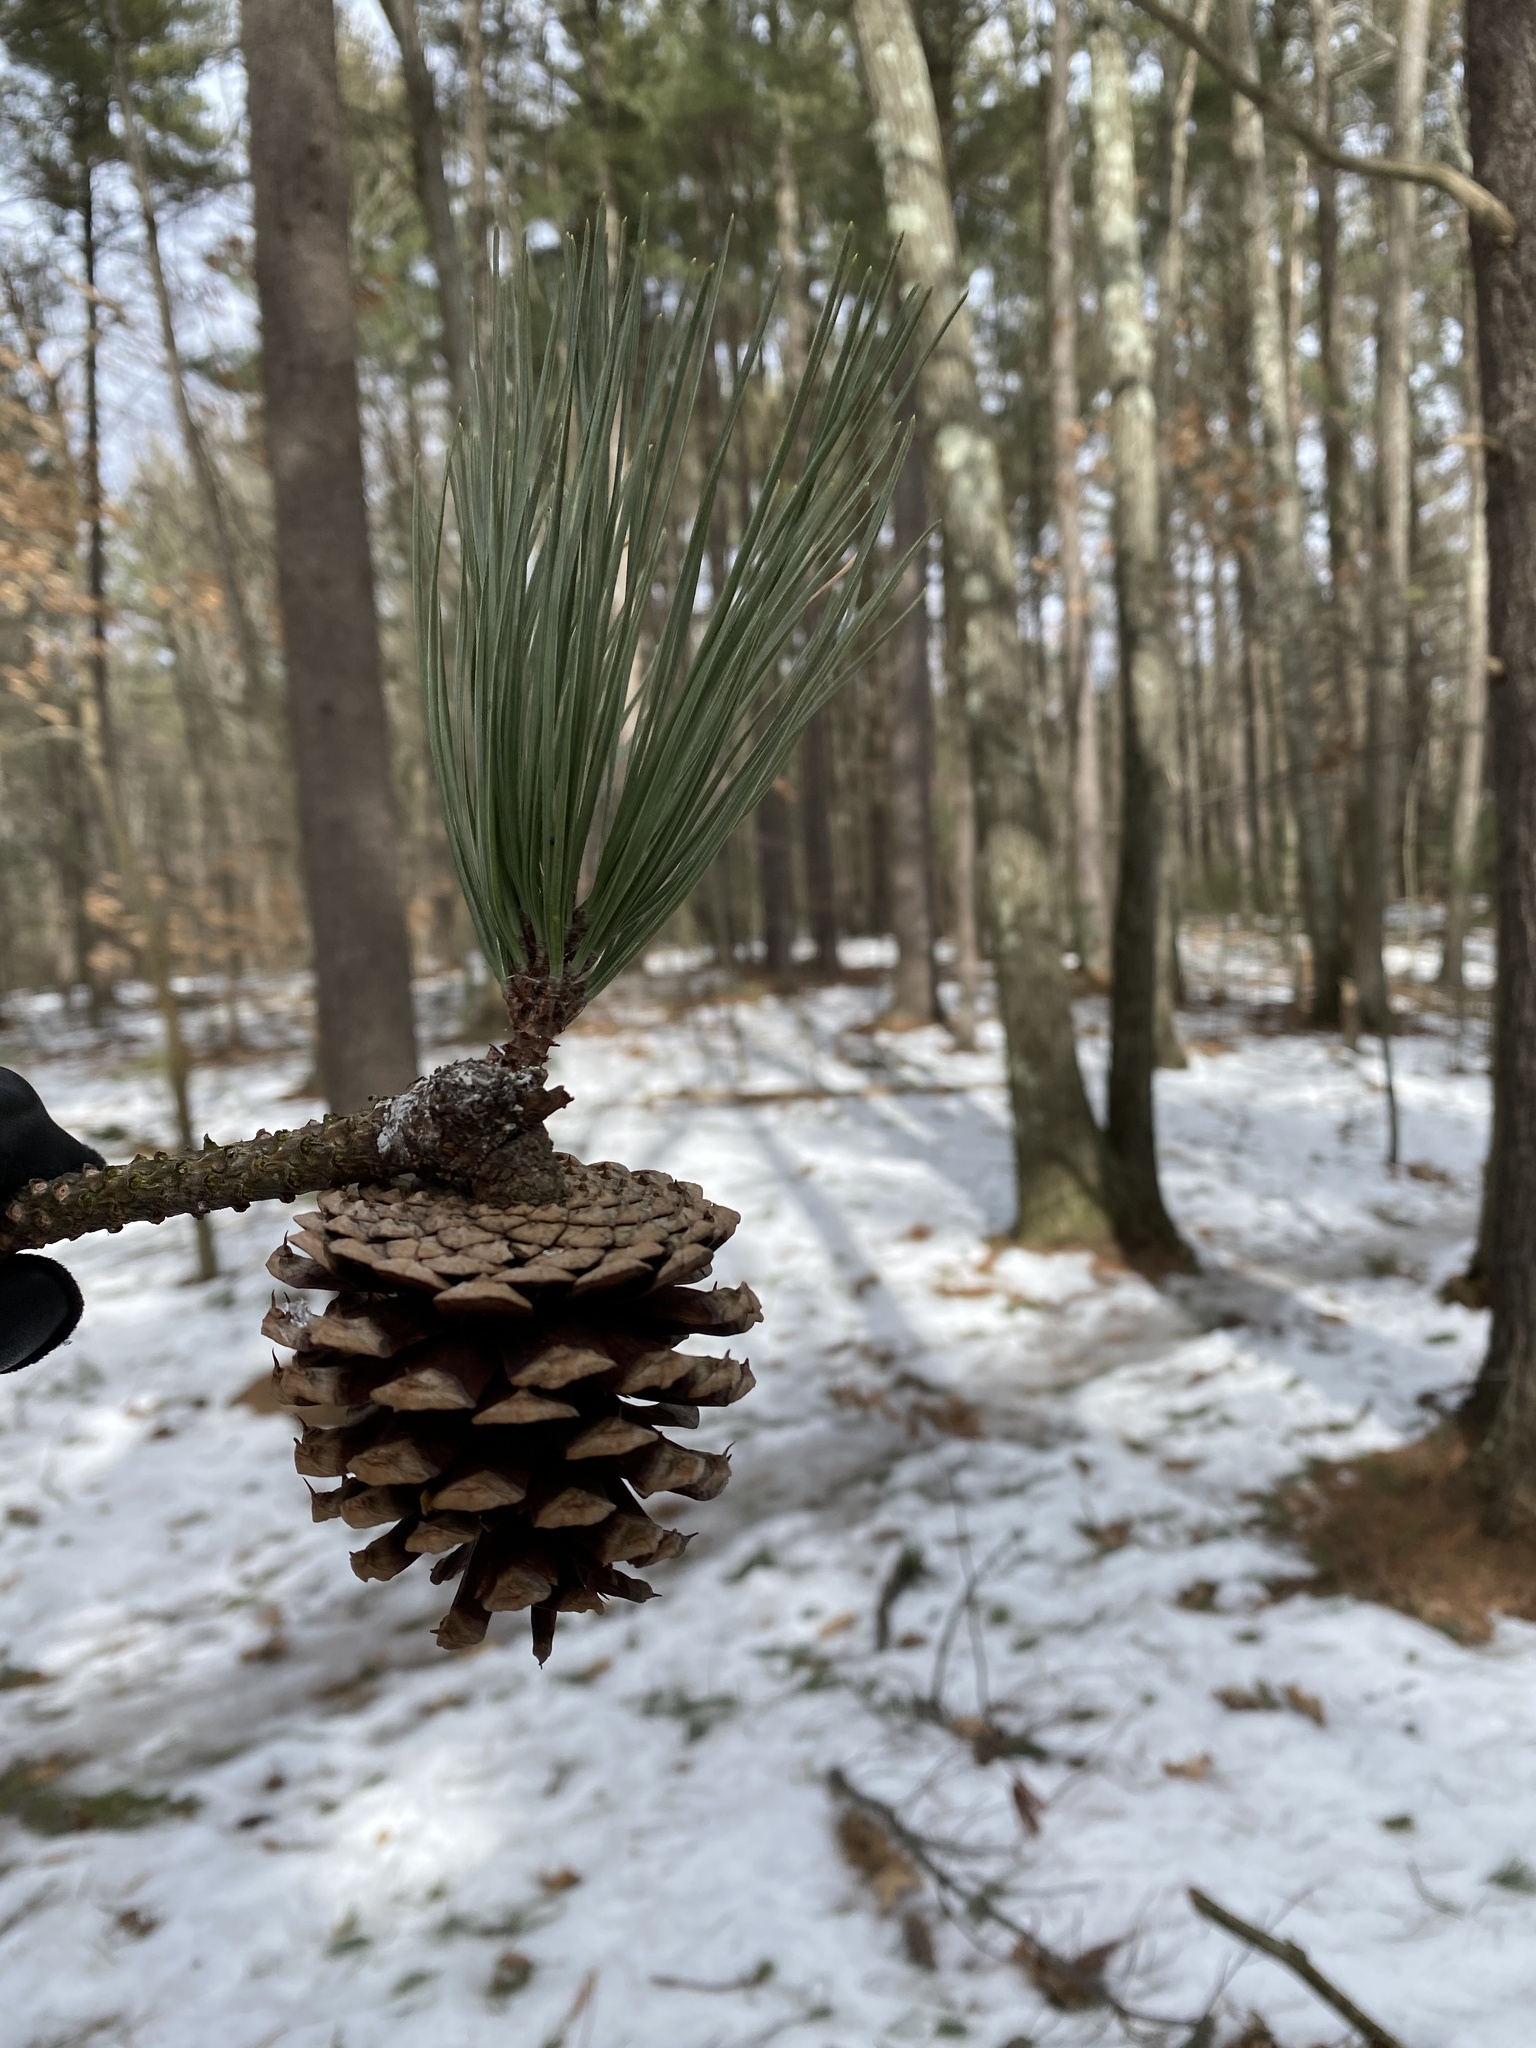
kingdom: Plantae
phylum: Tracheophyta
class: Pinopsida
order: Pinales
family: Pinaceae
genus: Pinus
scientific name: Pinus rigida
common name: Pitch pine
